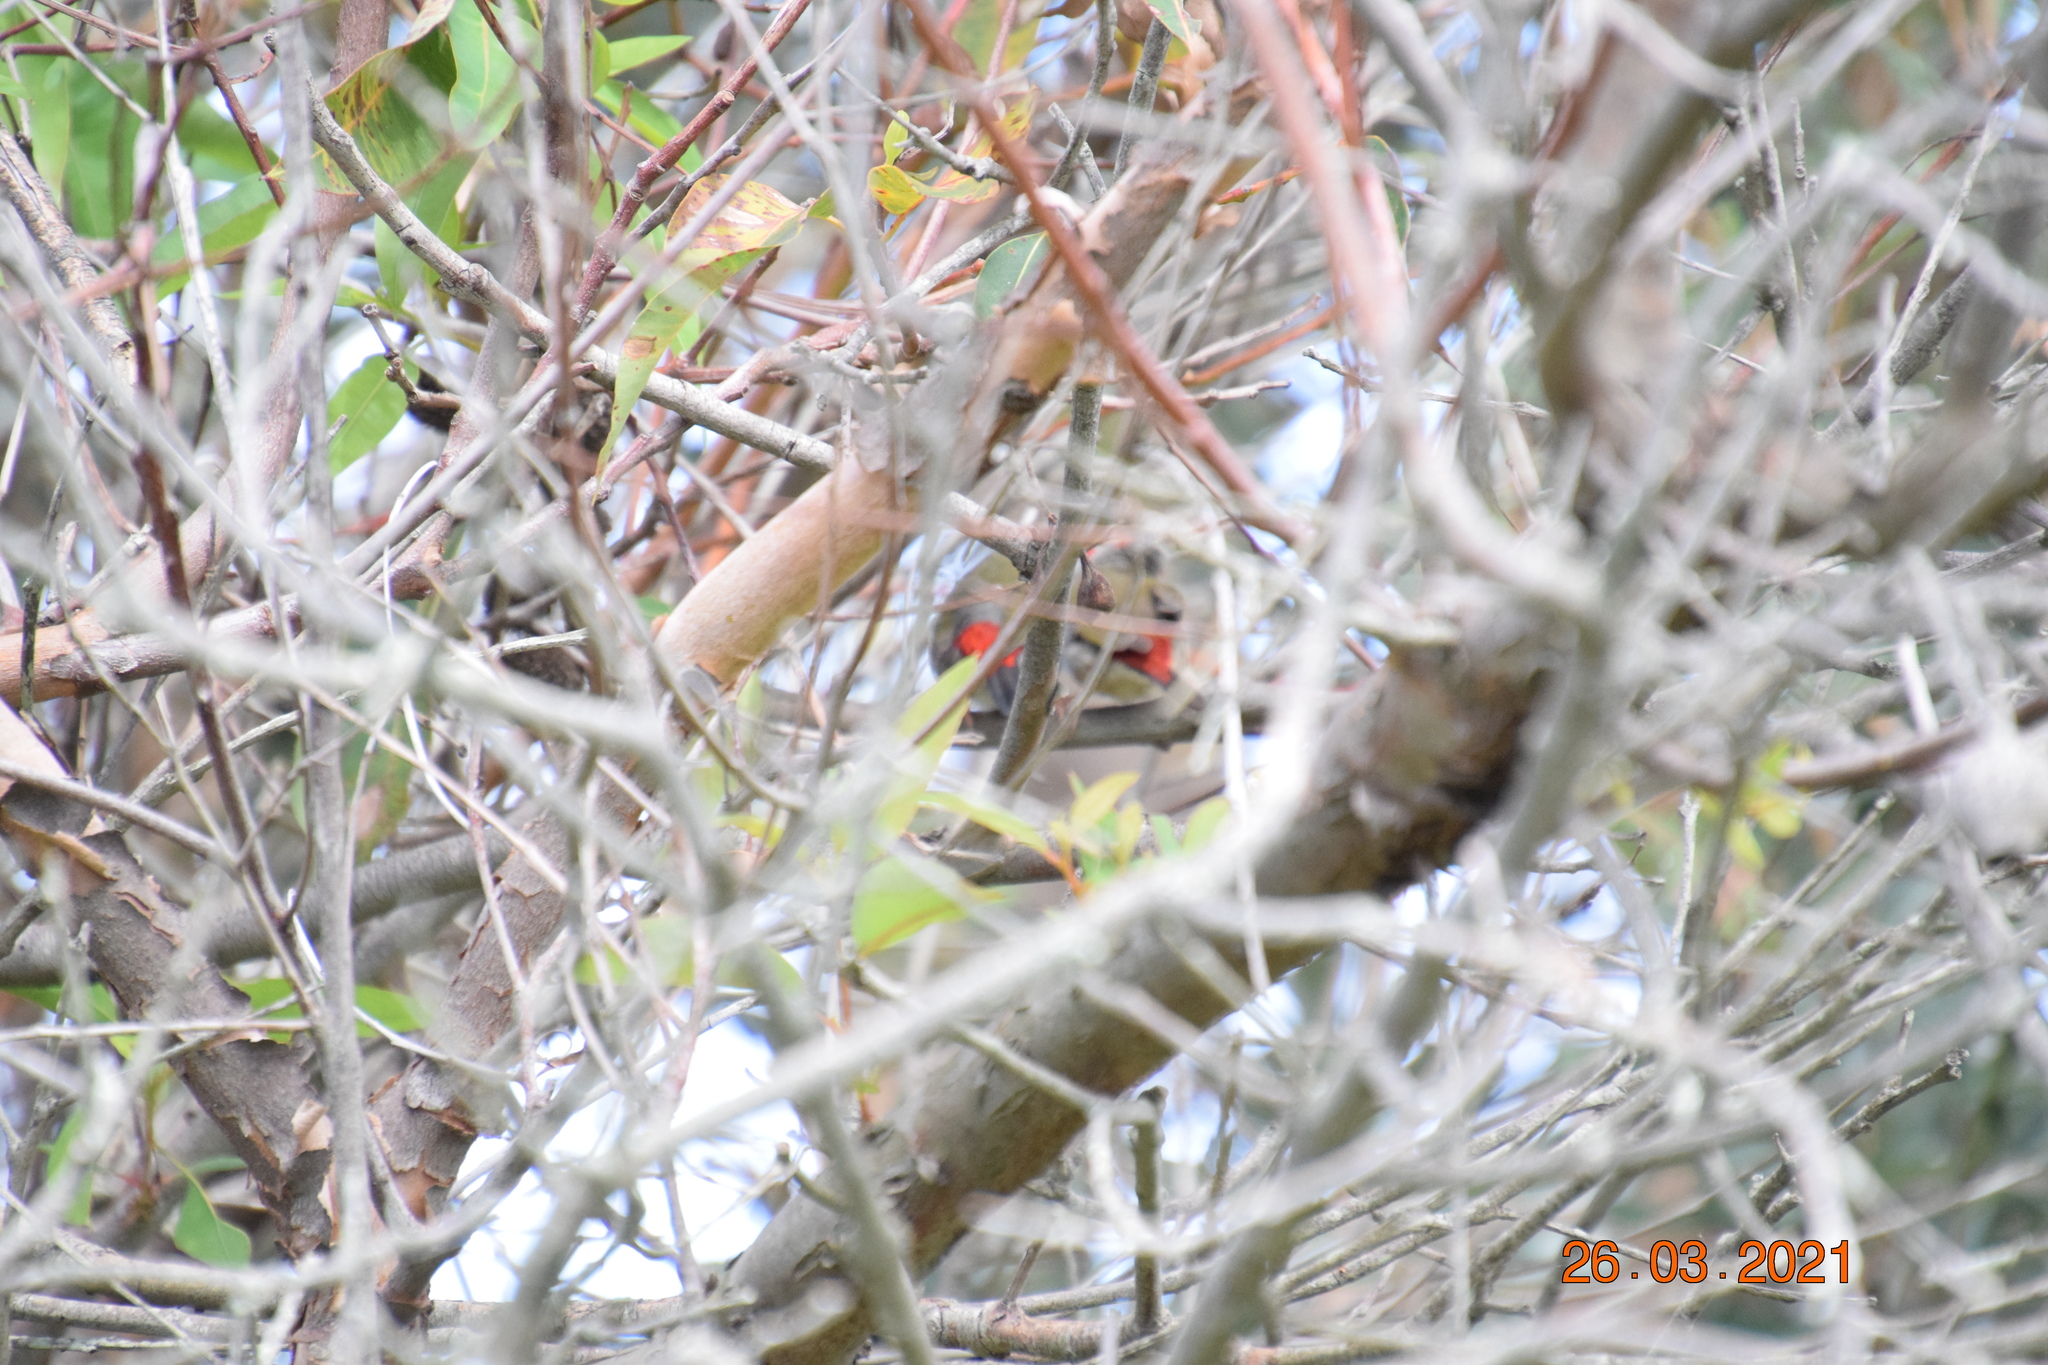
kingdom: Animalia
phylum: Chordata
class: Aves
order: Passeriformes
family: Estrildidae
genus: Neochmia
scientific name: Neochmia temporalis
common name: Red-browed finch
